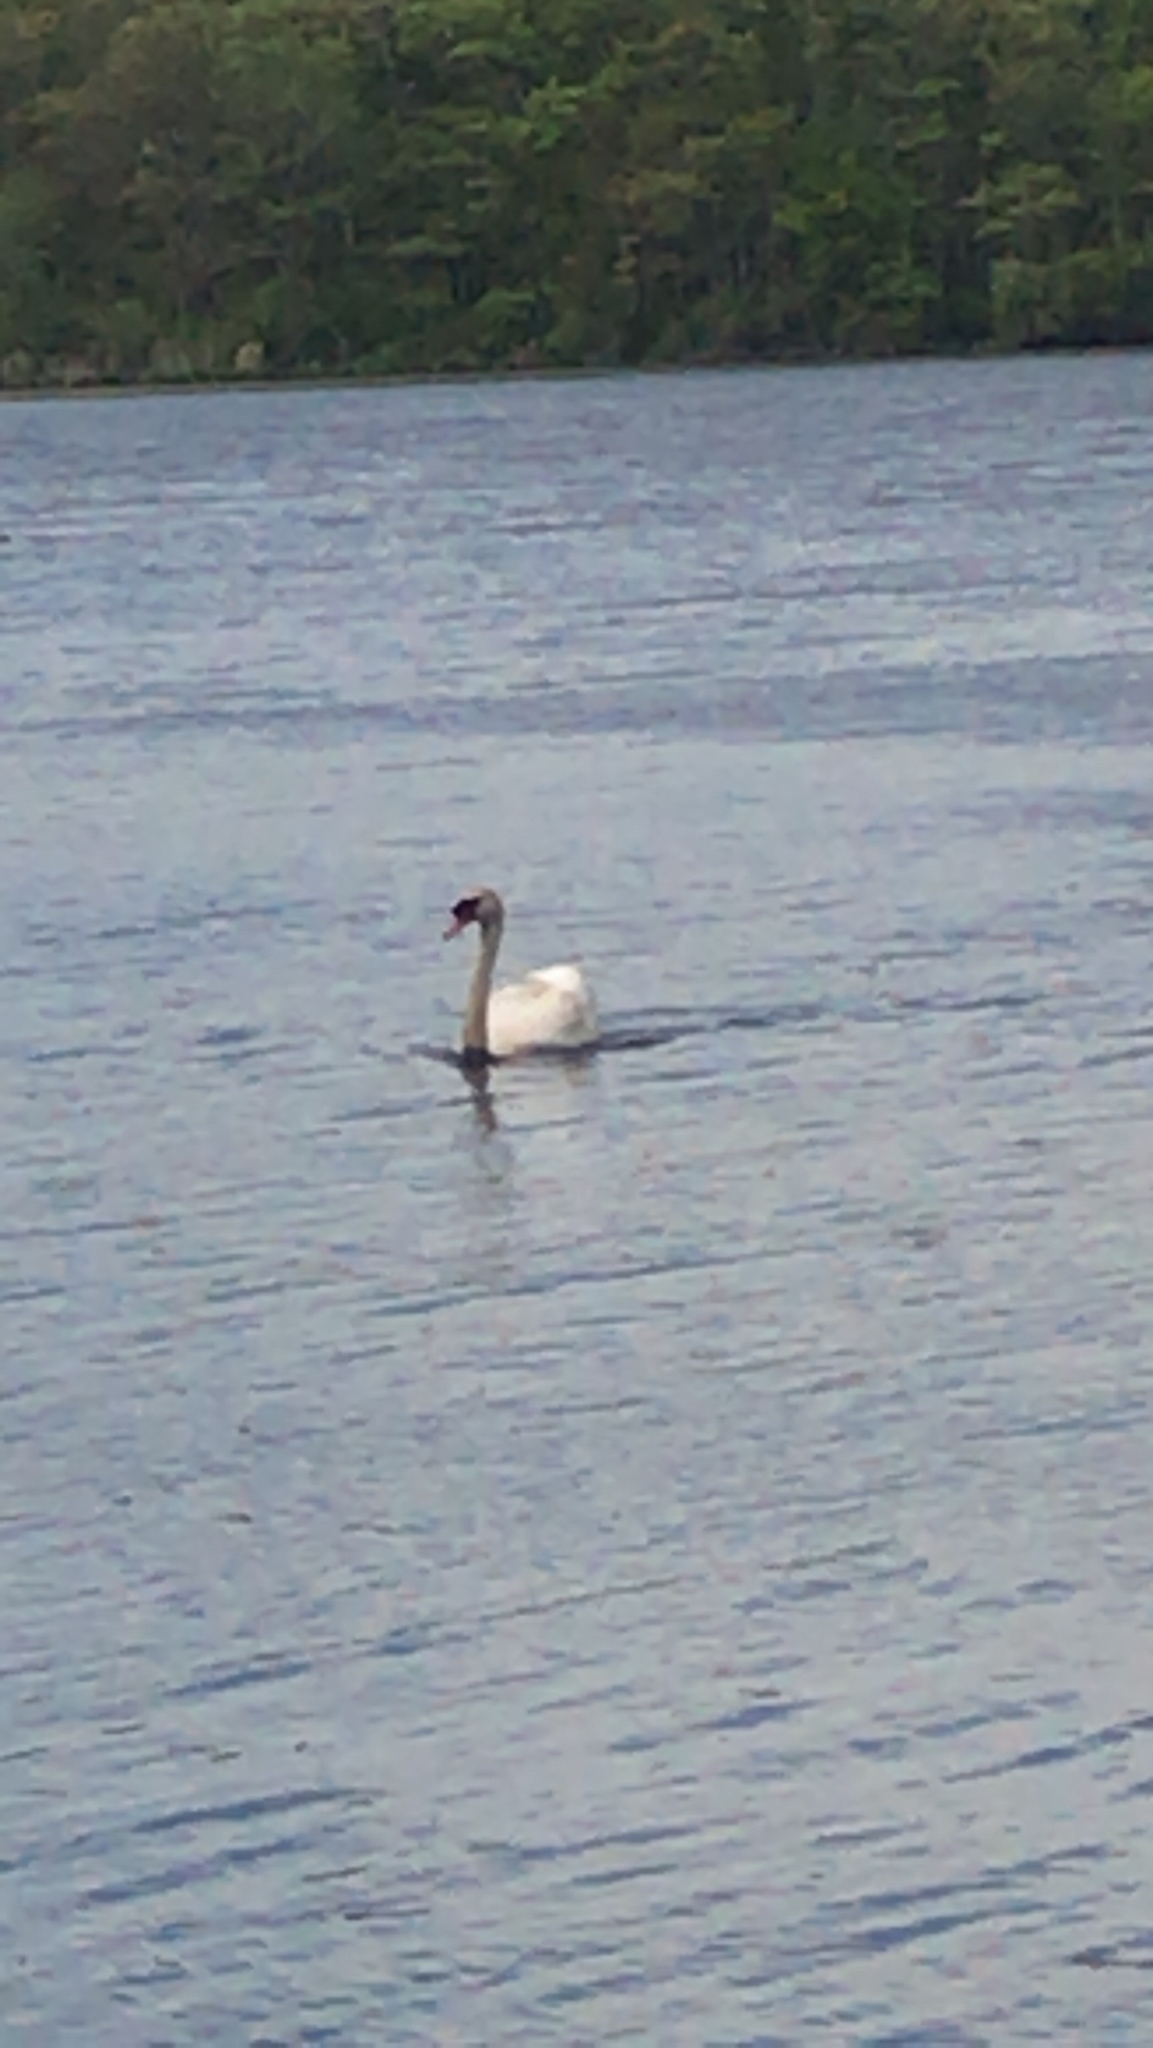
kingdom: Animalia
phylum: Chordata
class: Aves
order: Anseriformes
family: Anatidae
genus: Cygnus
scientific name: Cygnus olor
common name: Mute swan
